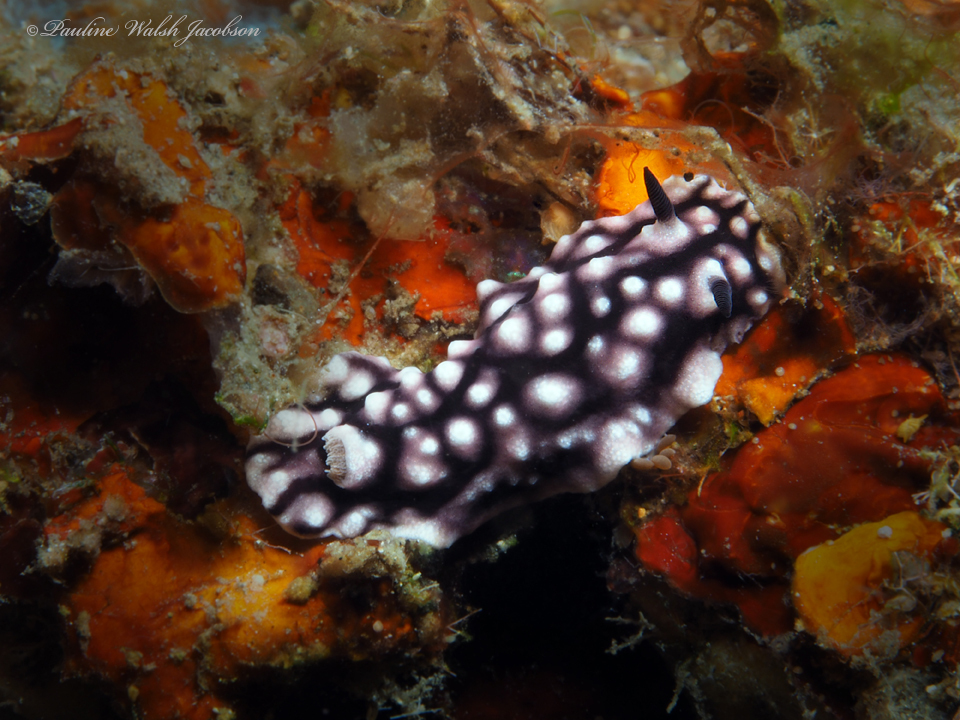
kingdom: Animalia
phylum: Mollusca
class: Gastropoda
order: Nudibranchia
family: Discodorididae
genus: Paradoris
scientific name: Paradoris liturata
